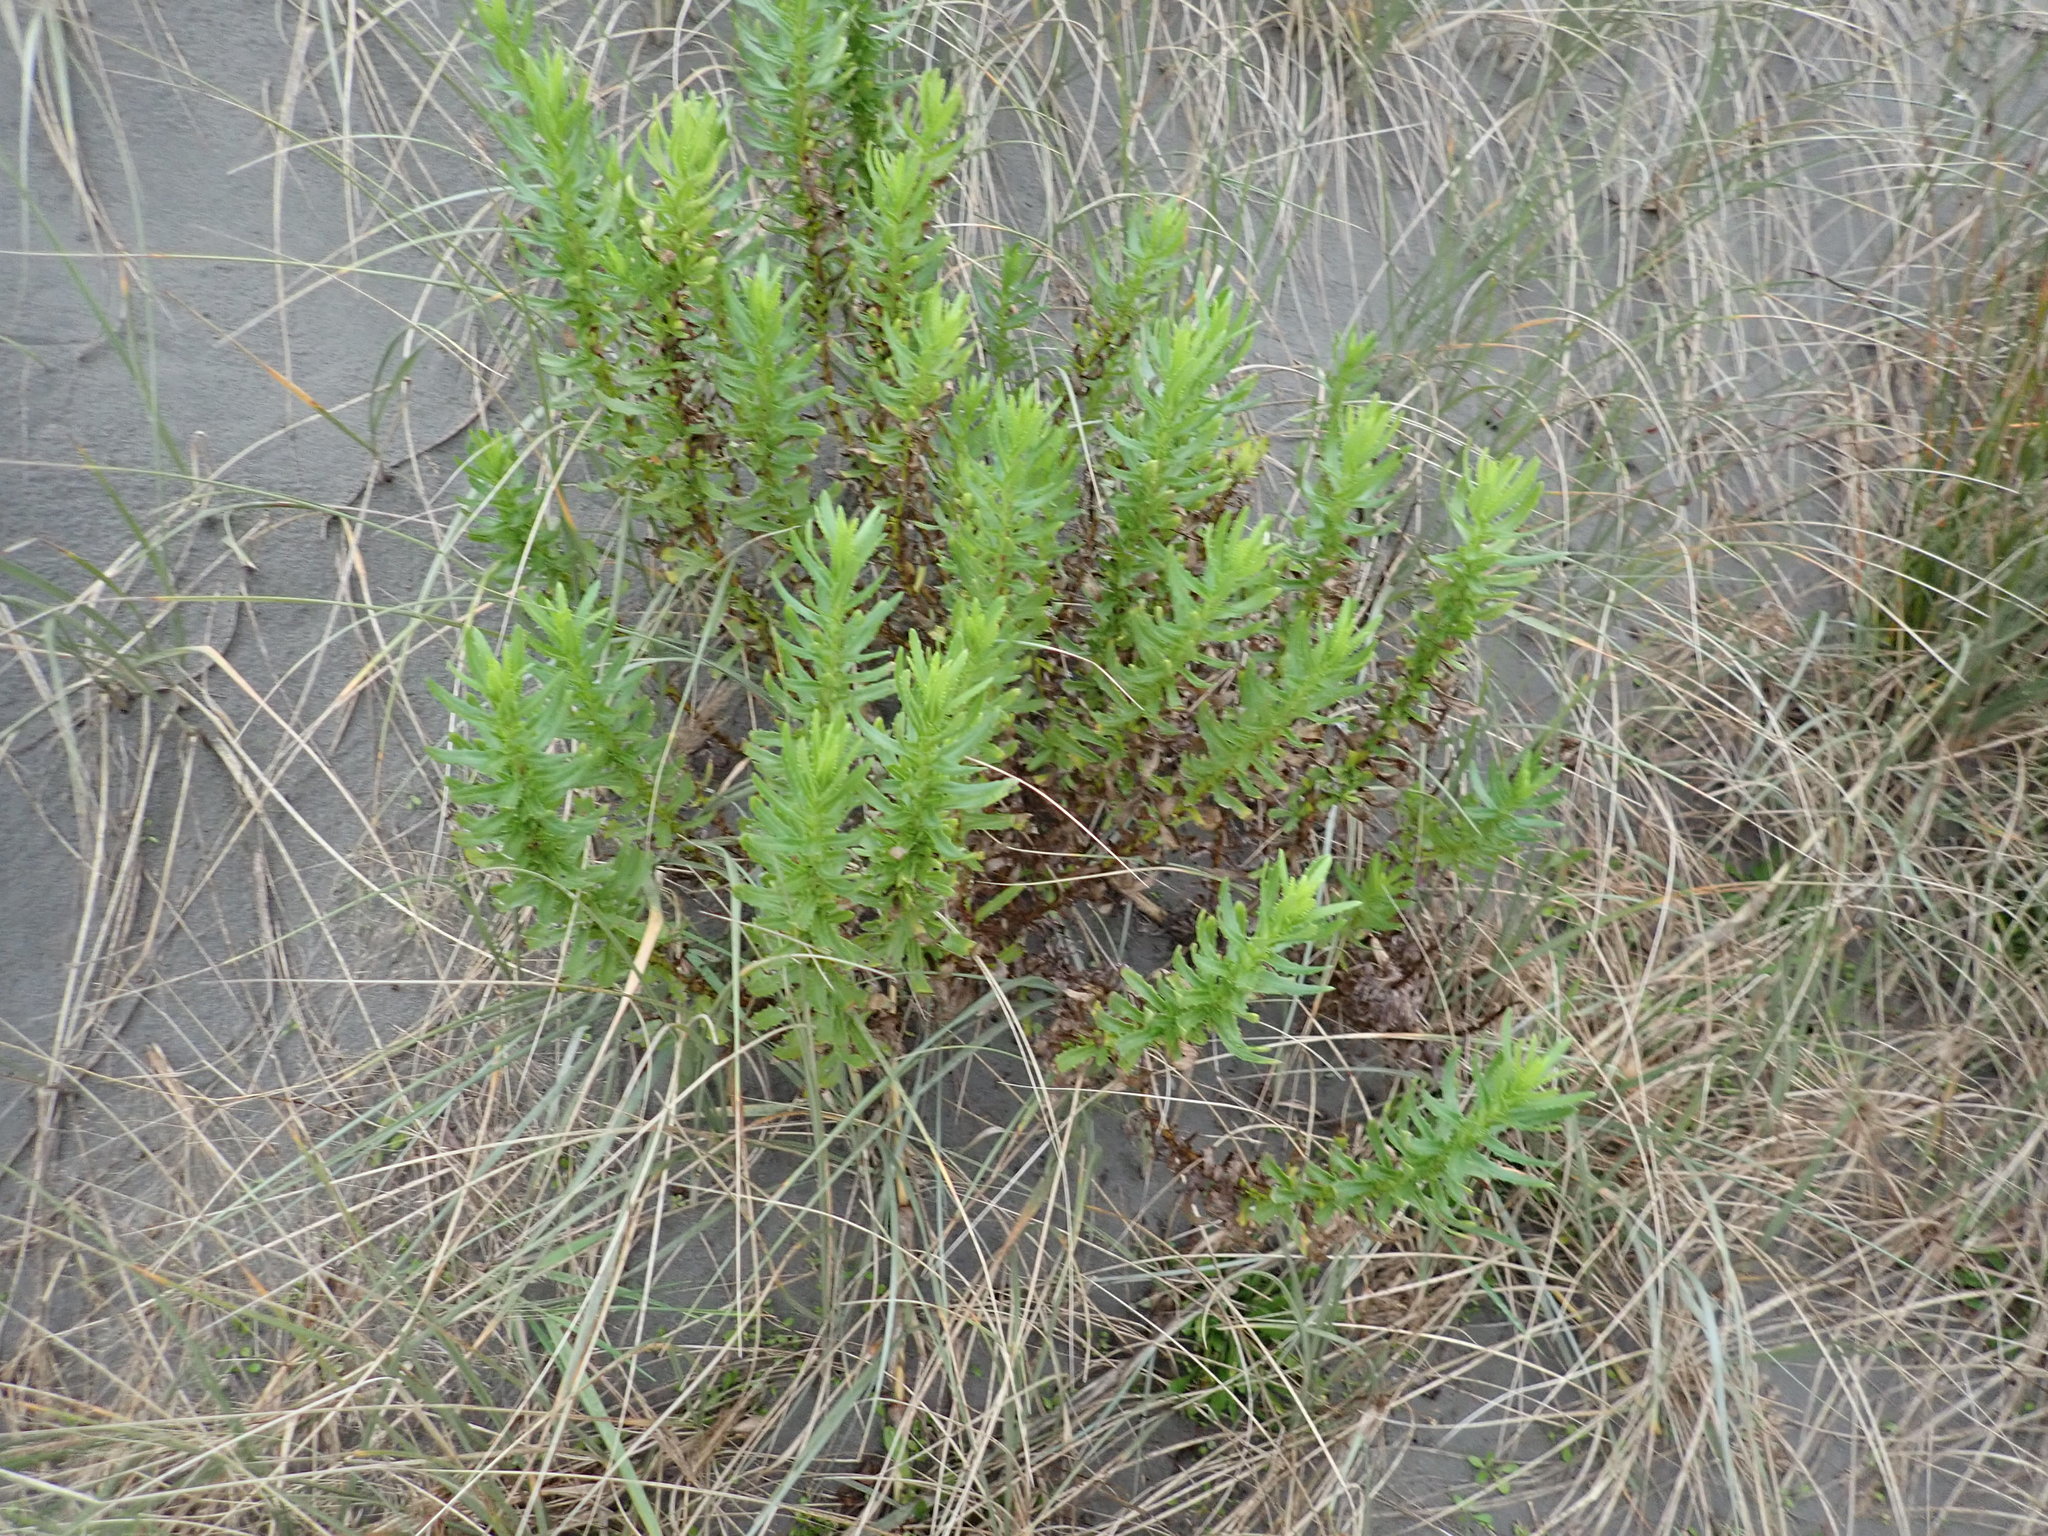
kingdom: Plantae
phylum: Tracheophyta
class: Magnoliopsida
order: Asterales
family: Asteraceae
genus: Senecio
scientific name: Senecio glastifolius
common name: Woad-leaved ragwort
